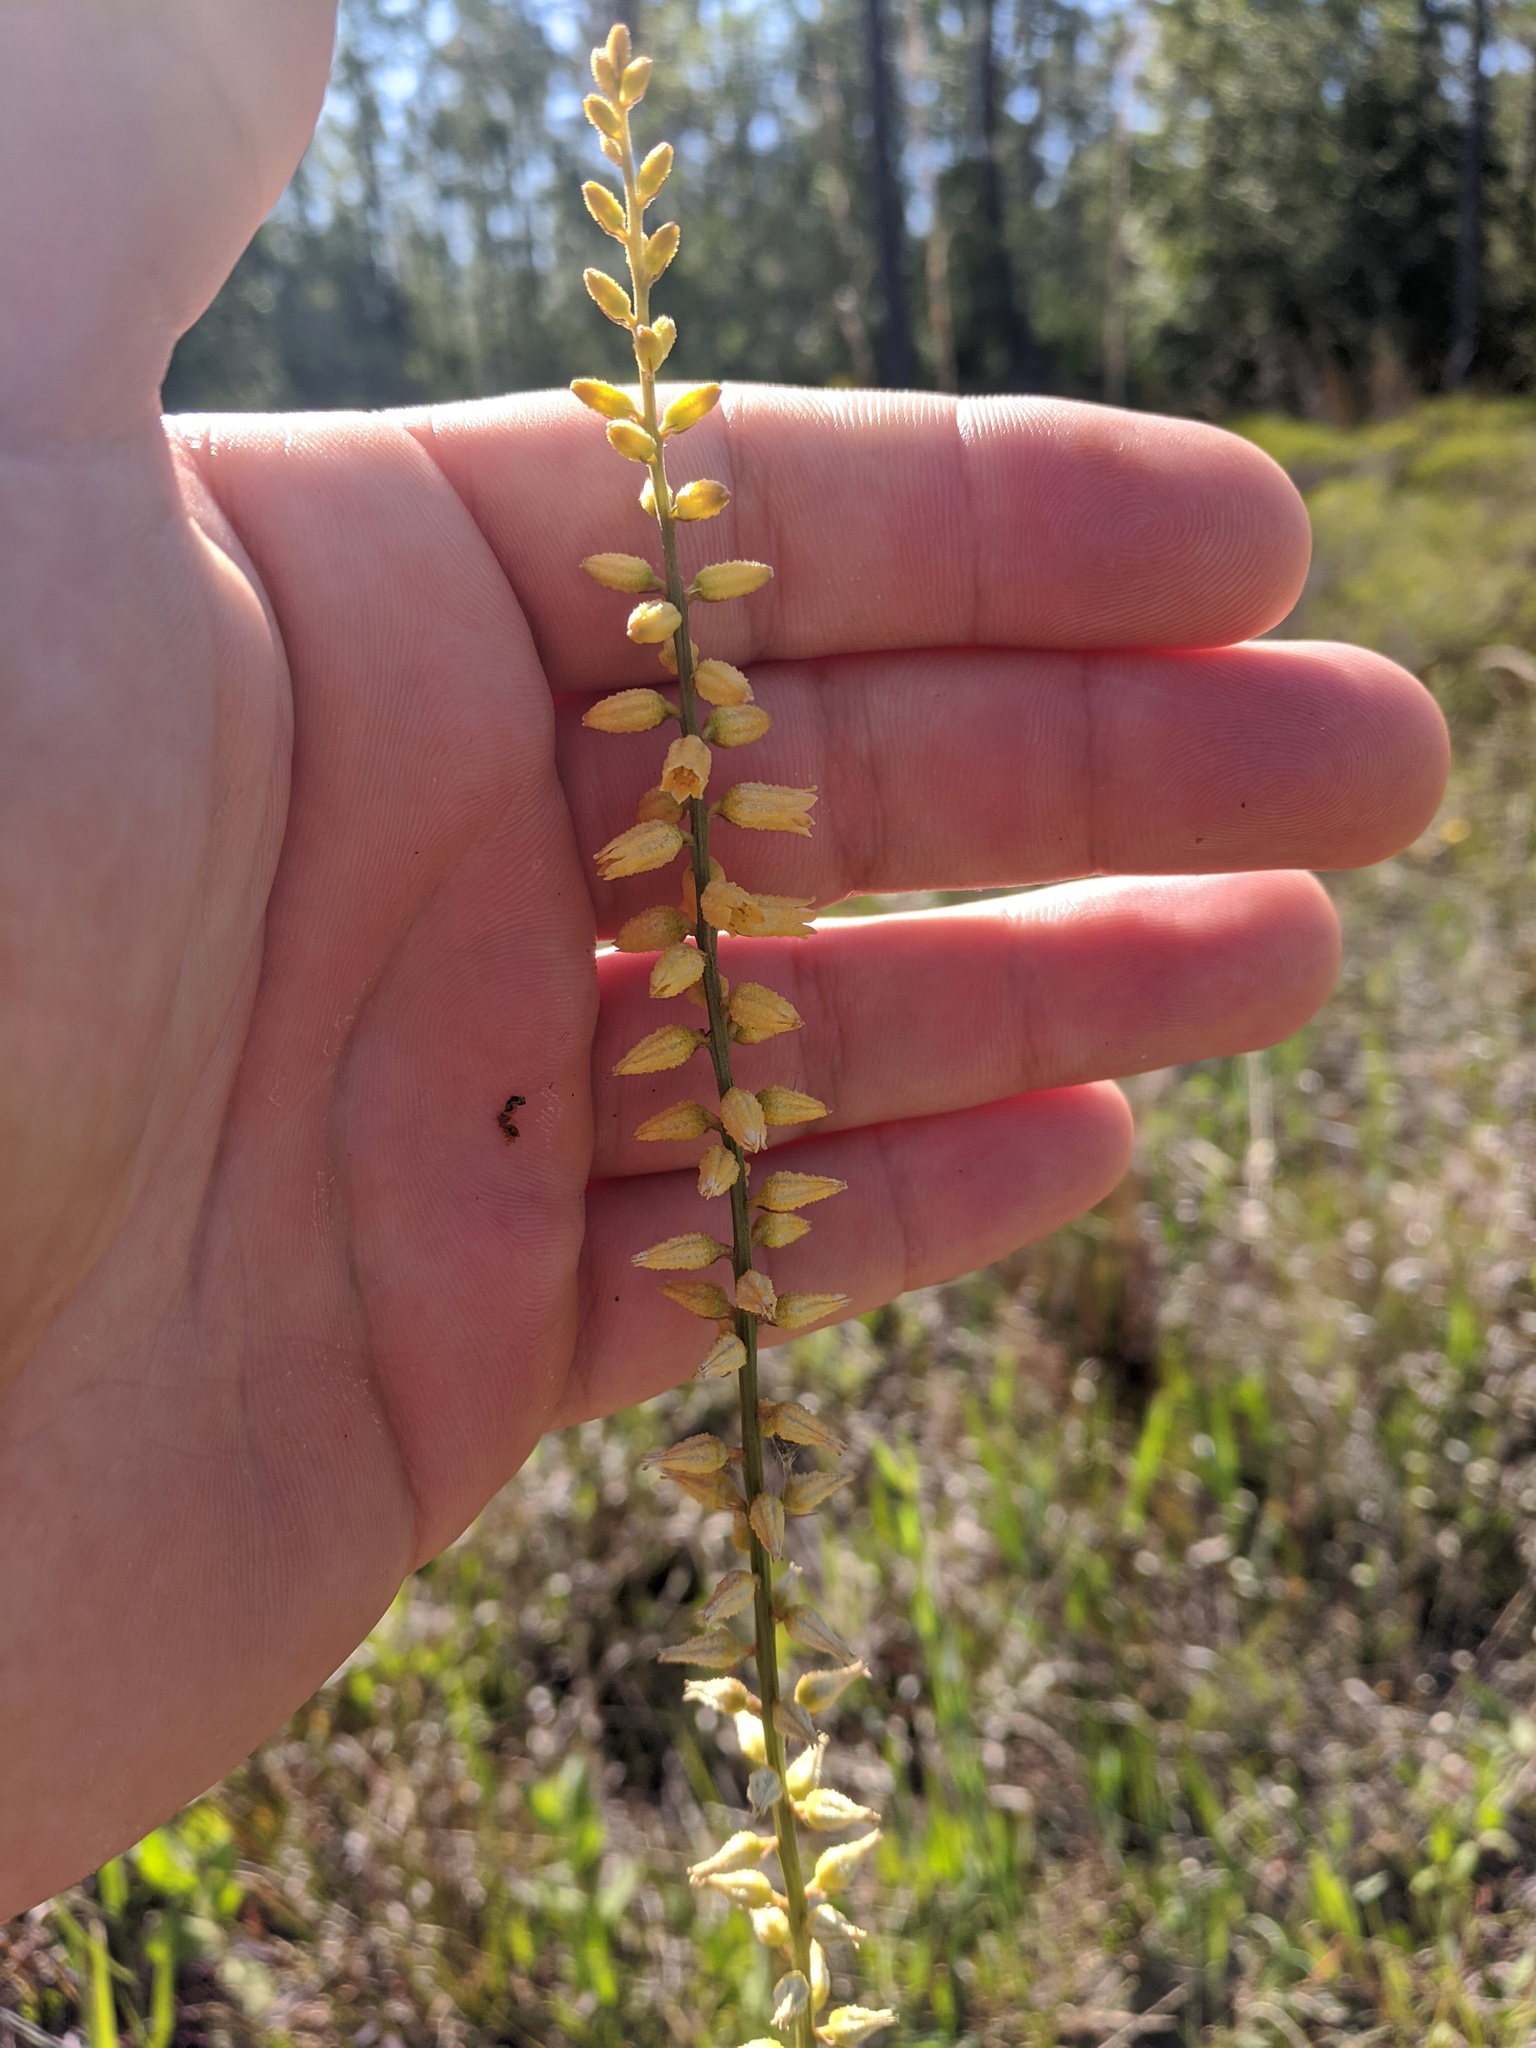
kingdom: Plantae
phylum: Tracheophyta
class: Liliopsida
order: Dioscoreales
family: Nartheciaceae
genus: Aletris
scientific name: Aletris lutea
